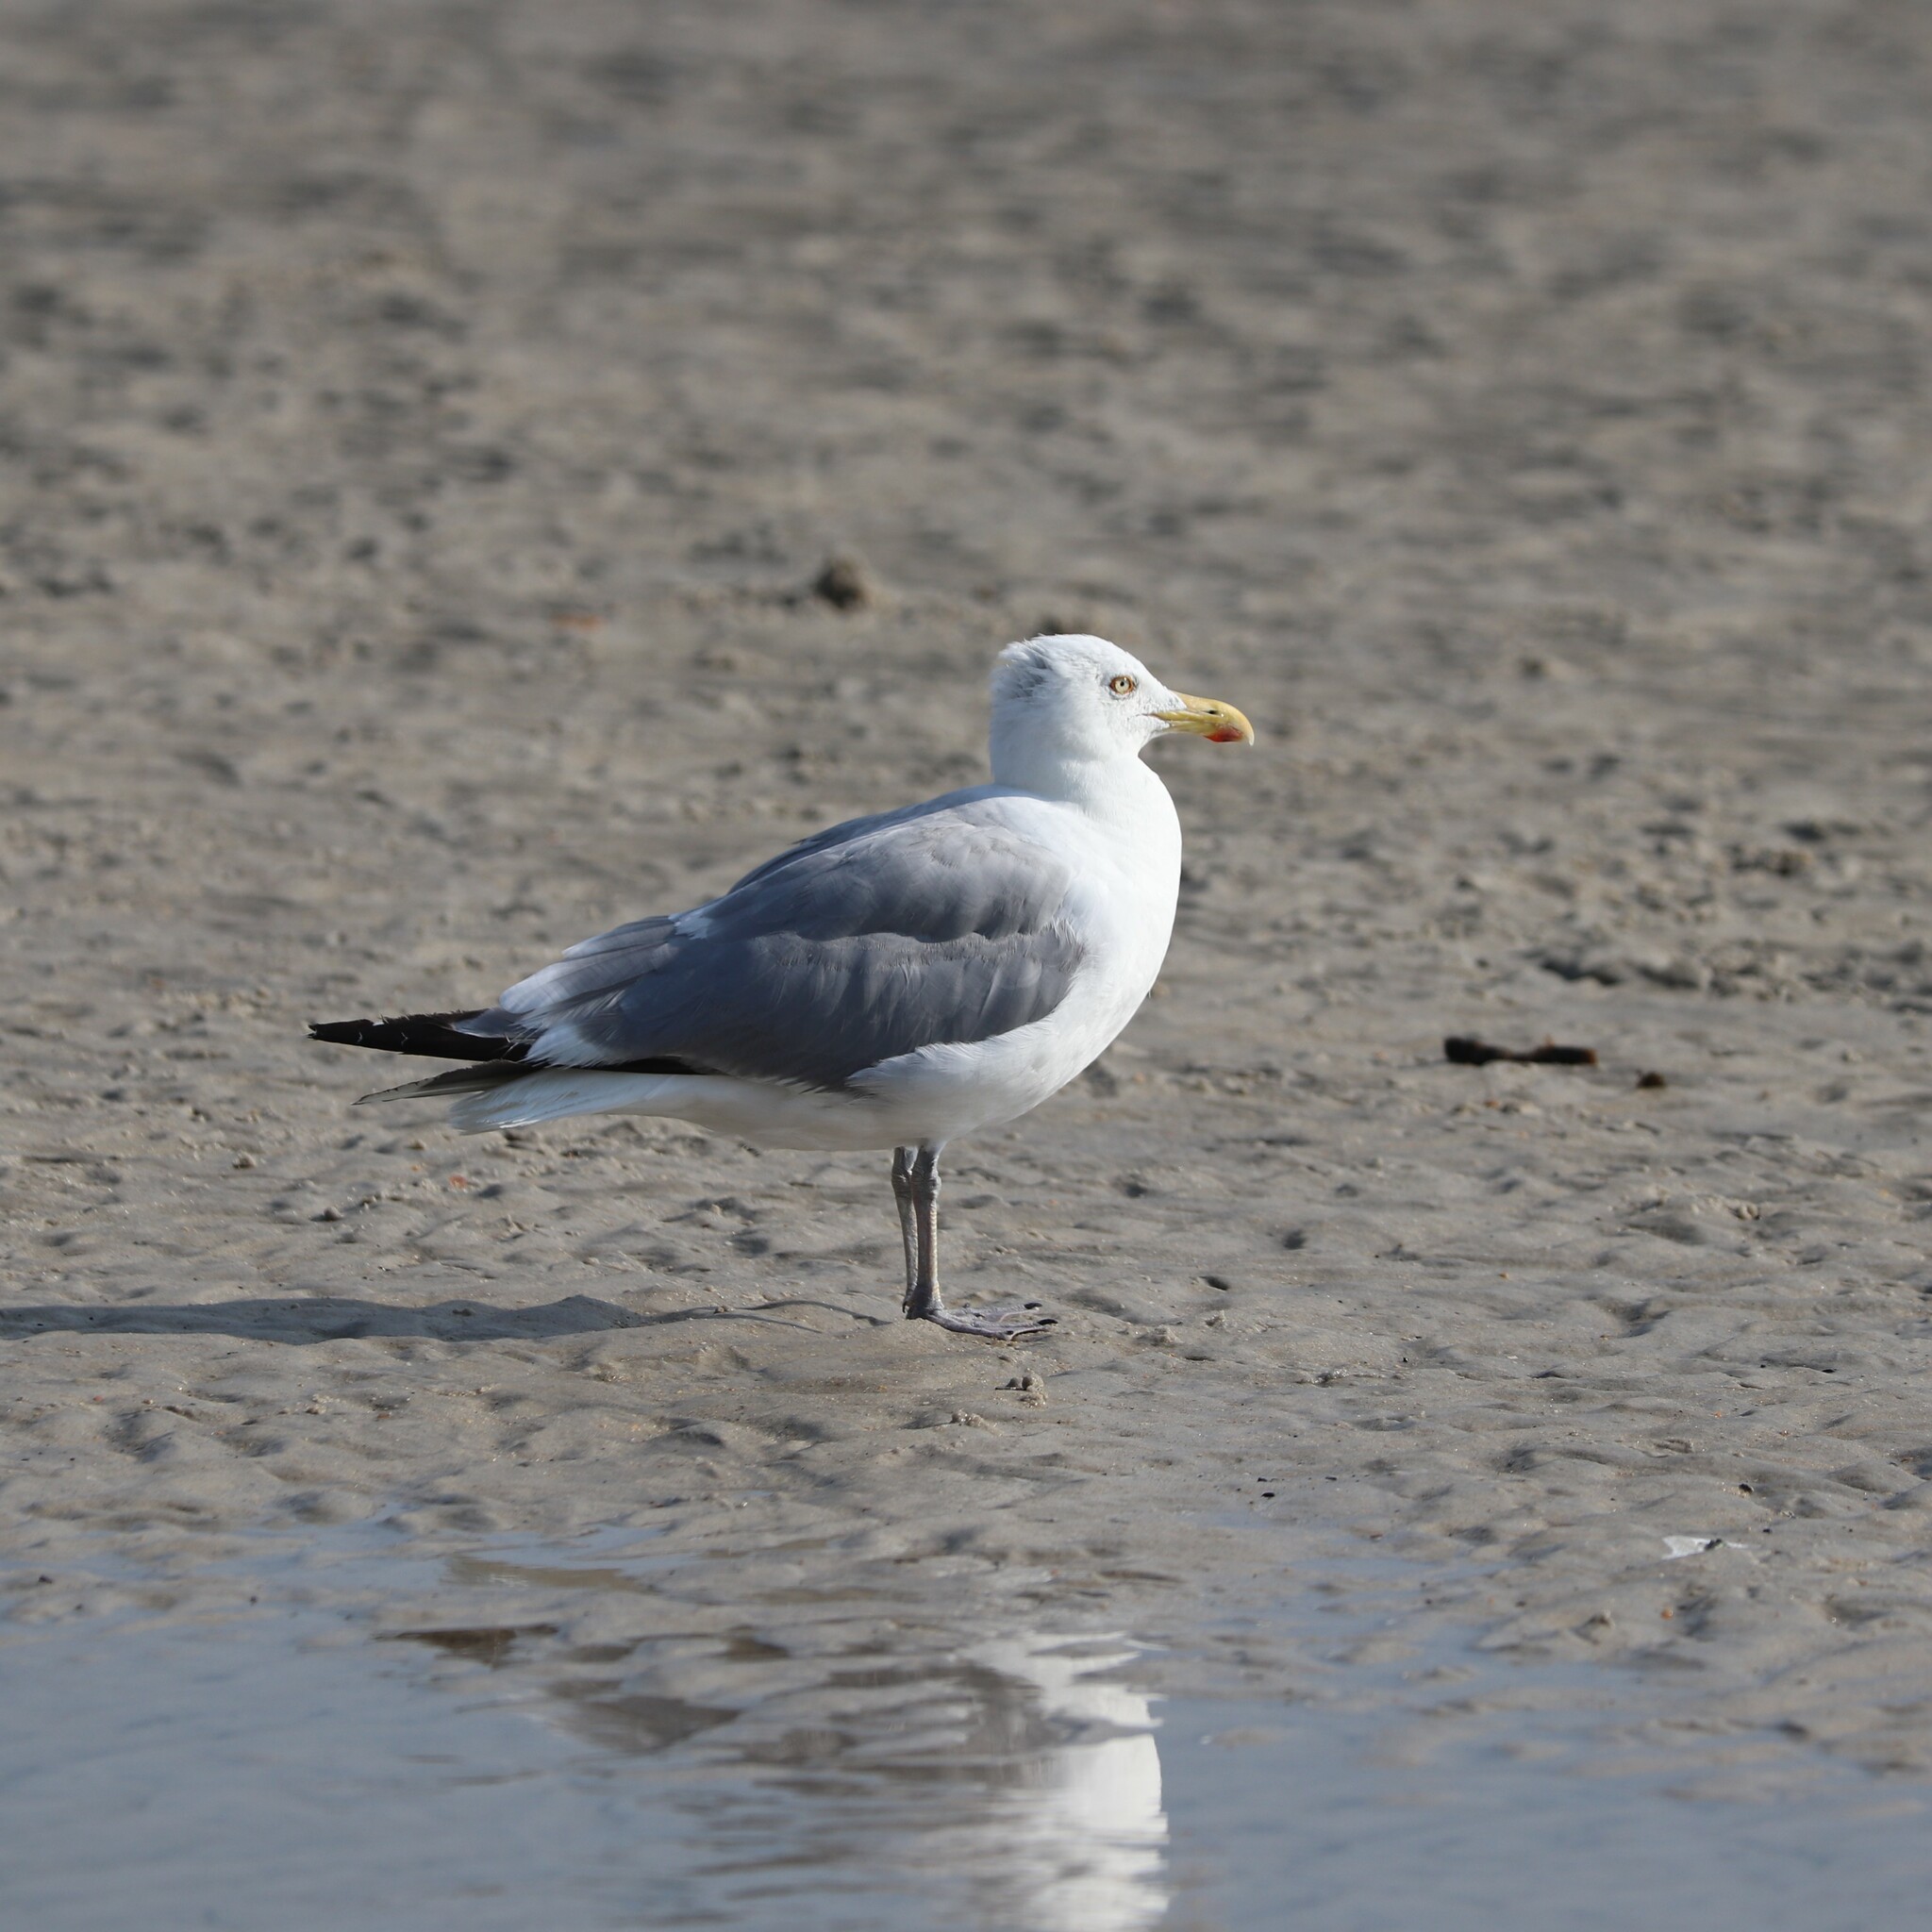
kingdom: Animalia
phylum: Chordata
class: Aves
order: Charadriiformes
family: Laridae
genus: Larus
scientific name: Larus argentatus
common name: Herring gull
